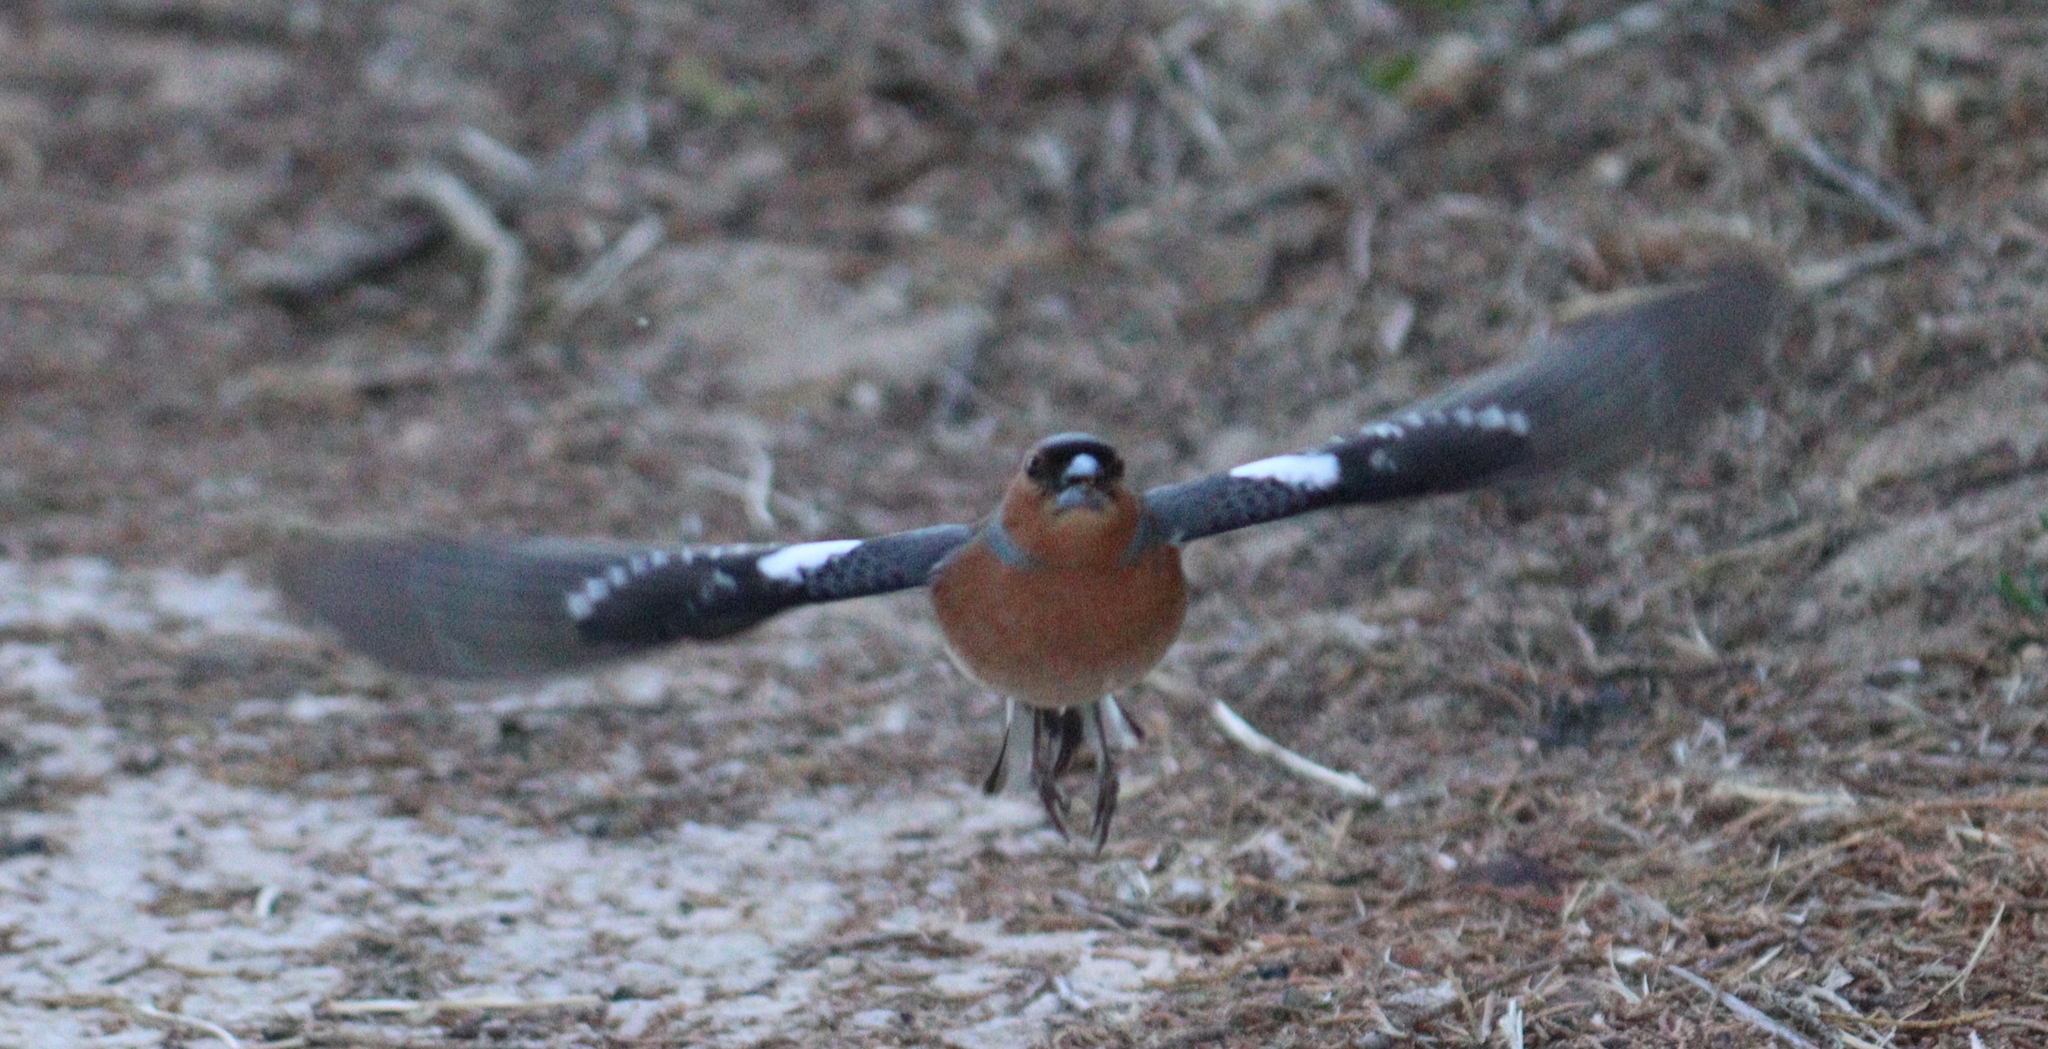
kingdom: Animalia
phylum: Chordata
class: Aves
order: Passeriformes
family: Fringillidae
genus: Fringilla
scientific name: Fringilla coelebs
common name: Common chaffinch
